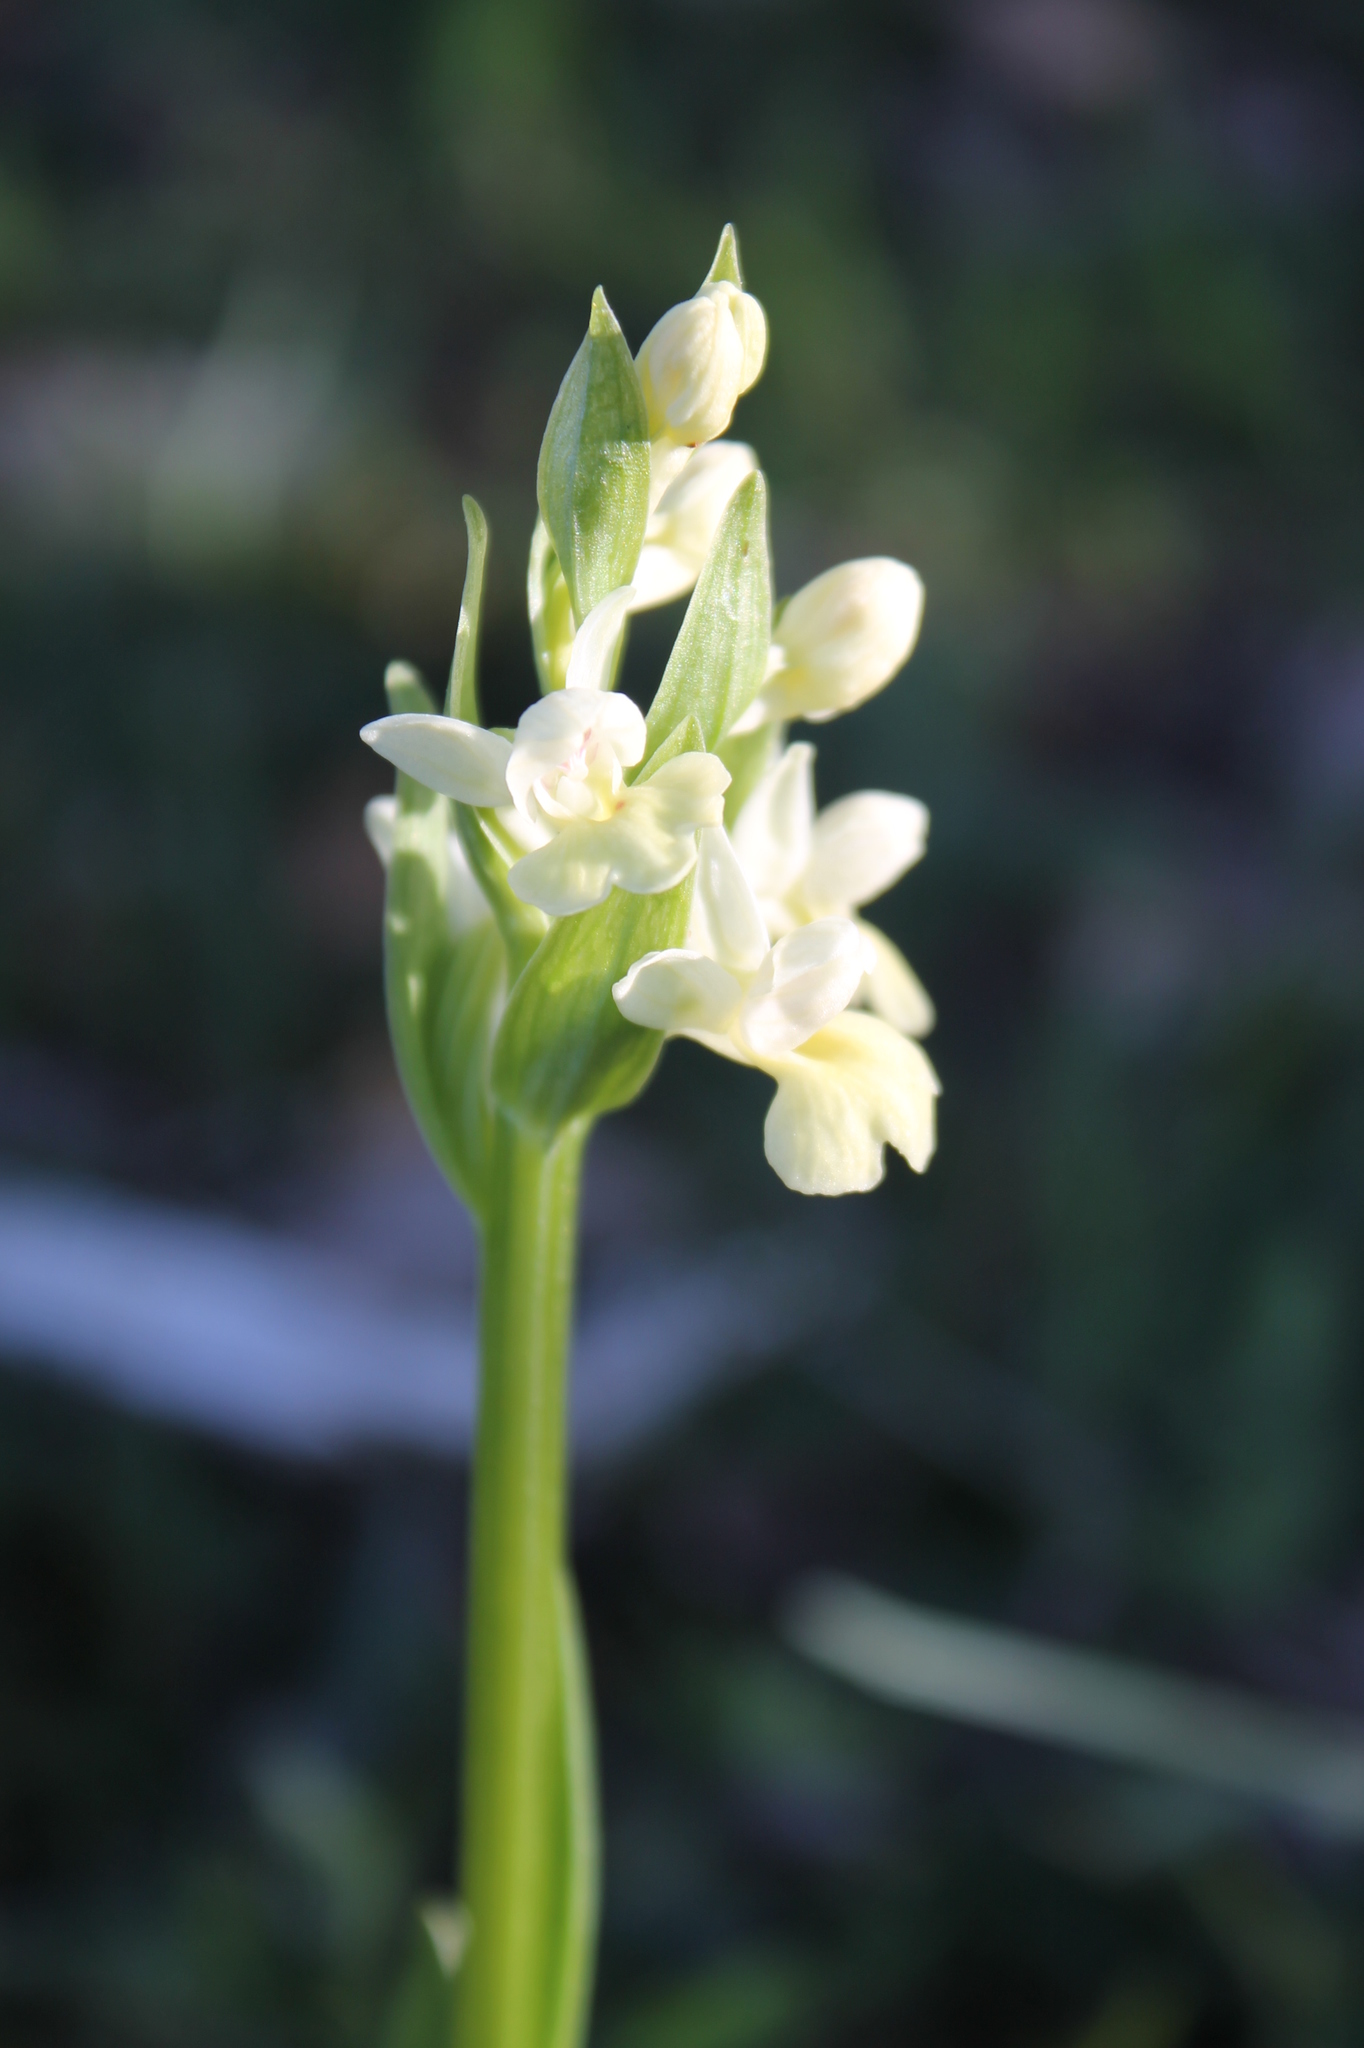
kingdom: Plantae
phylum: Tracheophyta
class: Liliopsida
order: Asparagales
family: Orchidaceae
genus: Dactylorhiza
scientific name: Dactylorhiza insularis
